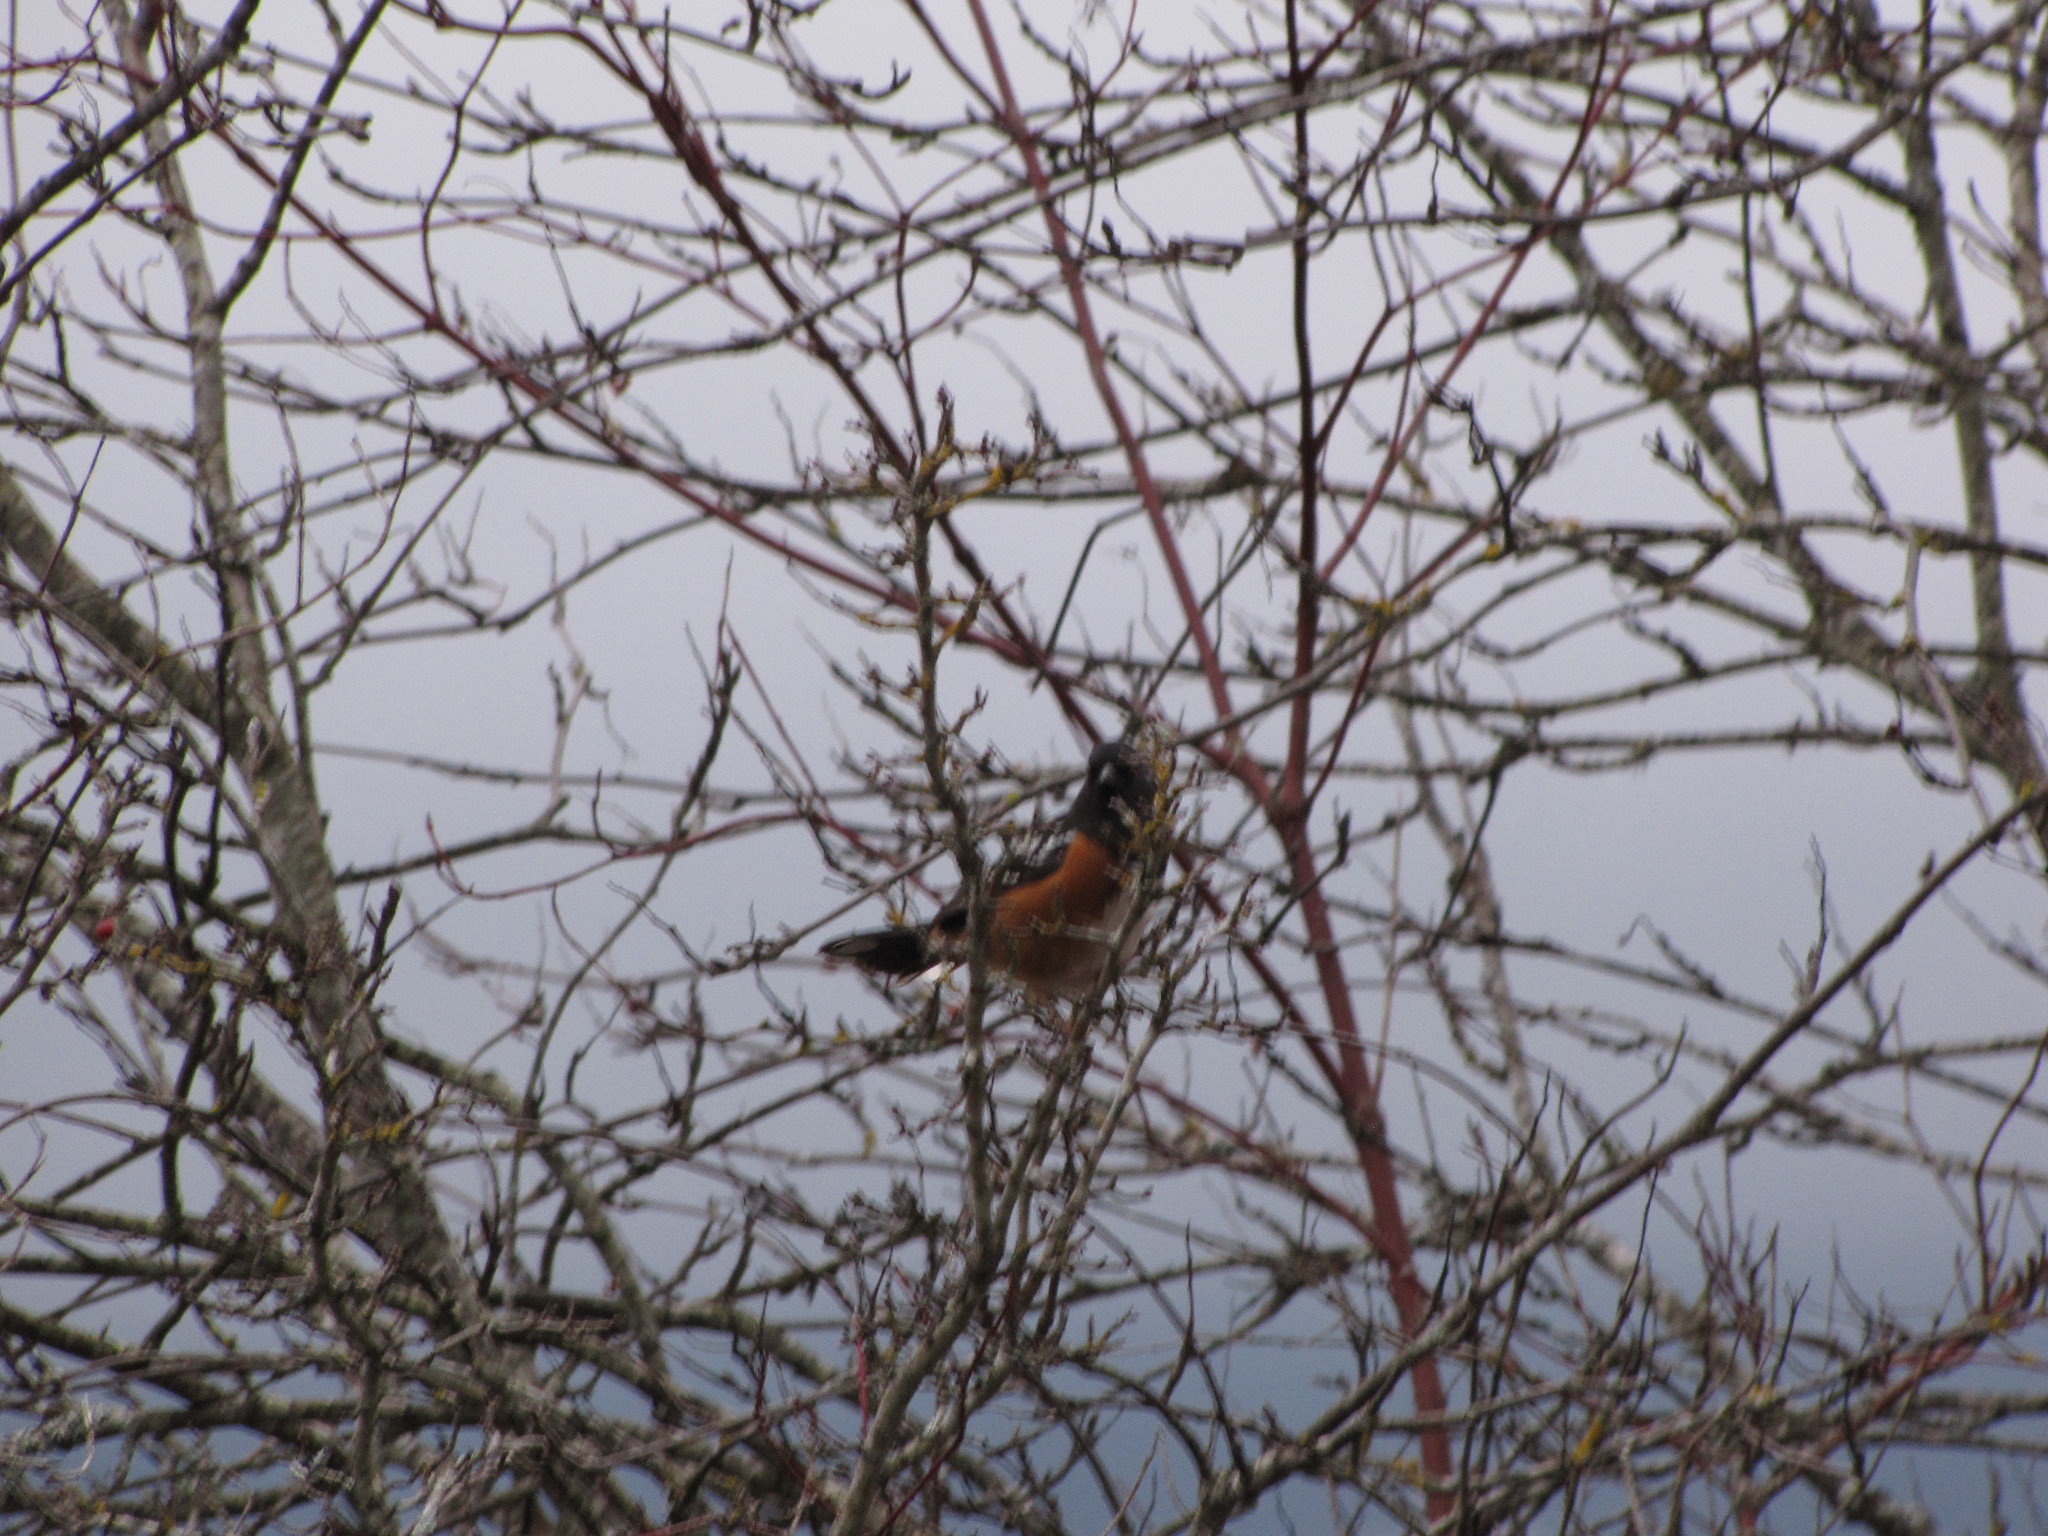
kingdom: Animalia
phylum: Chordata
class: Aves
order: Passeriformes
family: Passerellidae
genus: Pipilo
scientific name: Pipilo maculatus
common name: Spotted towhee
